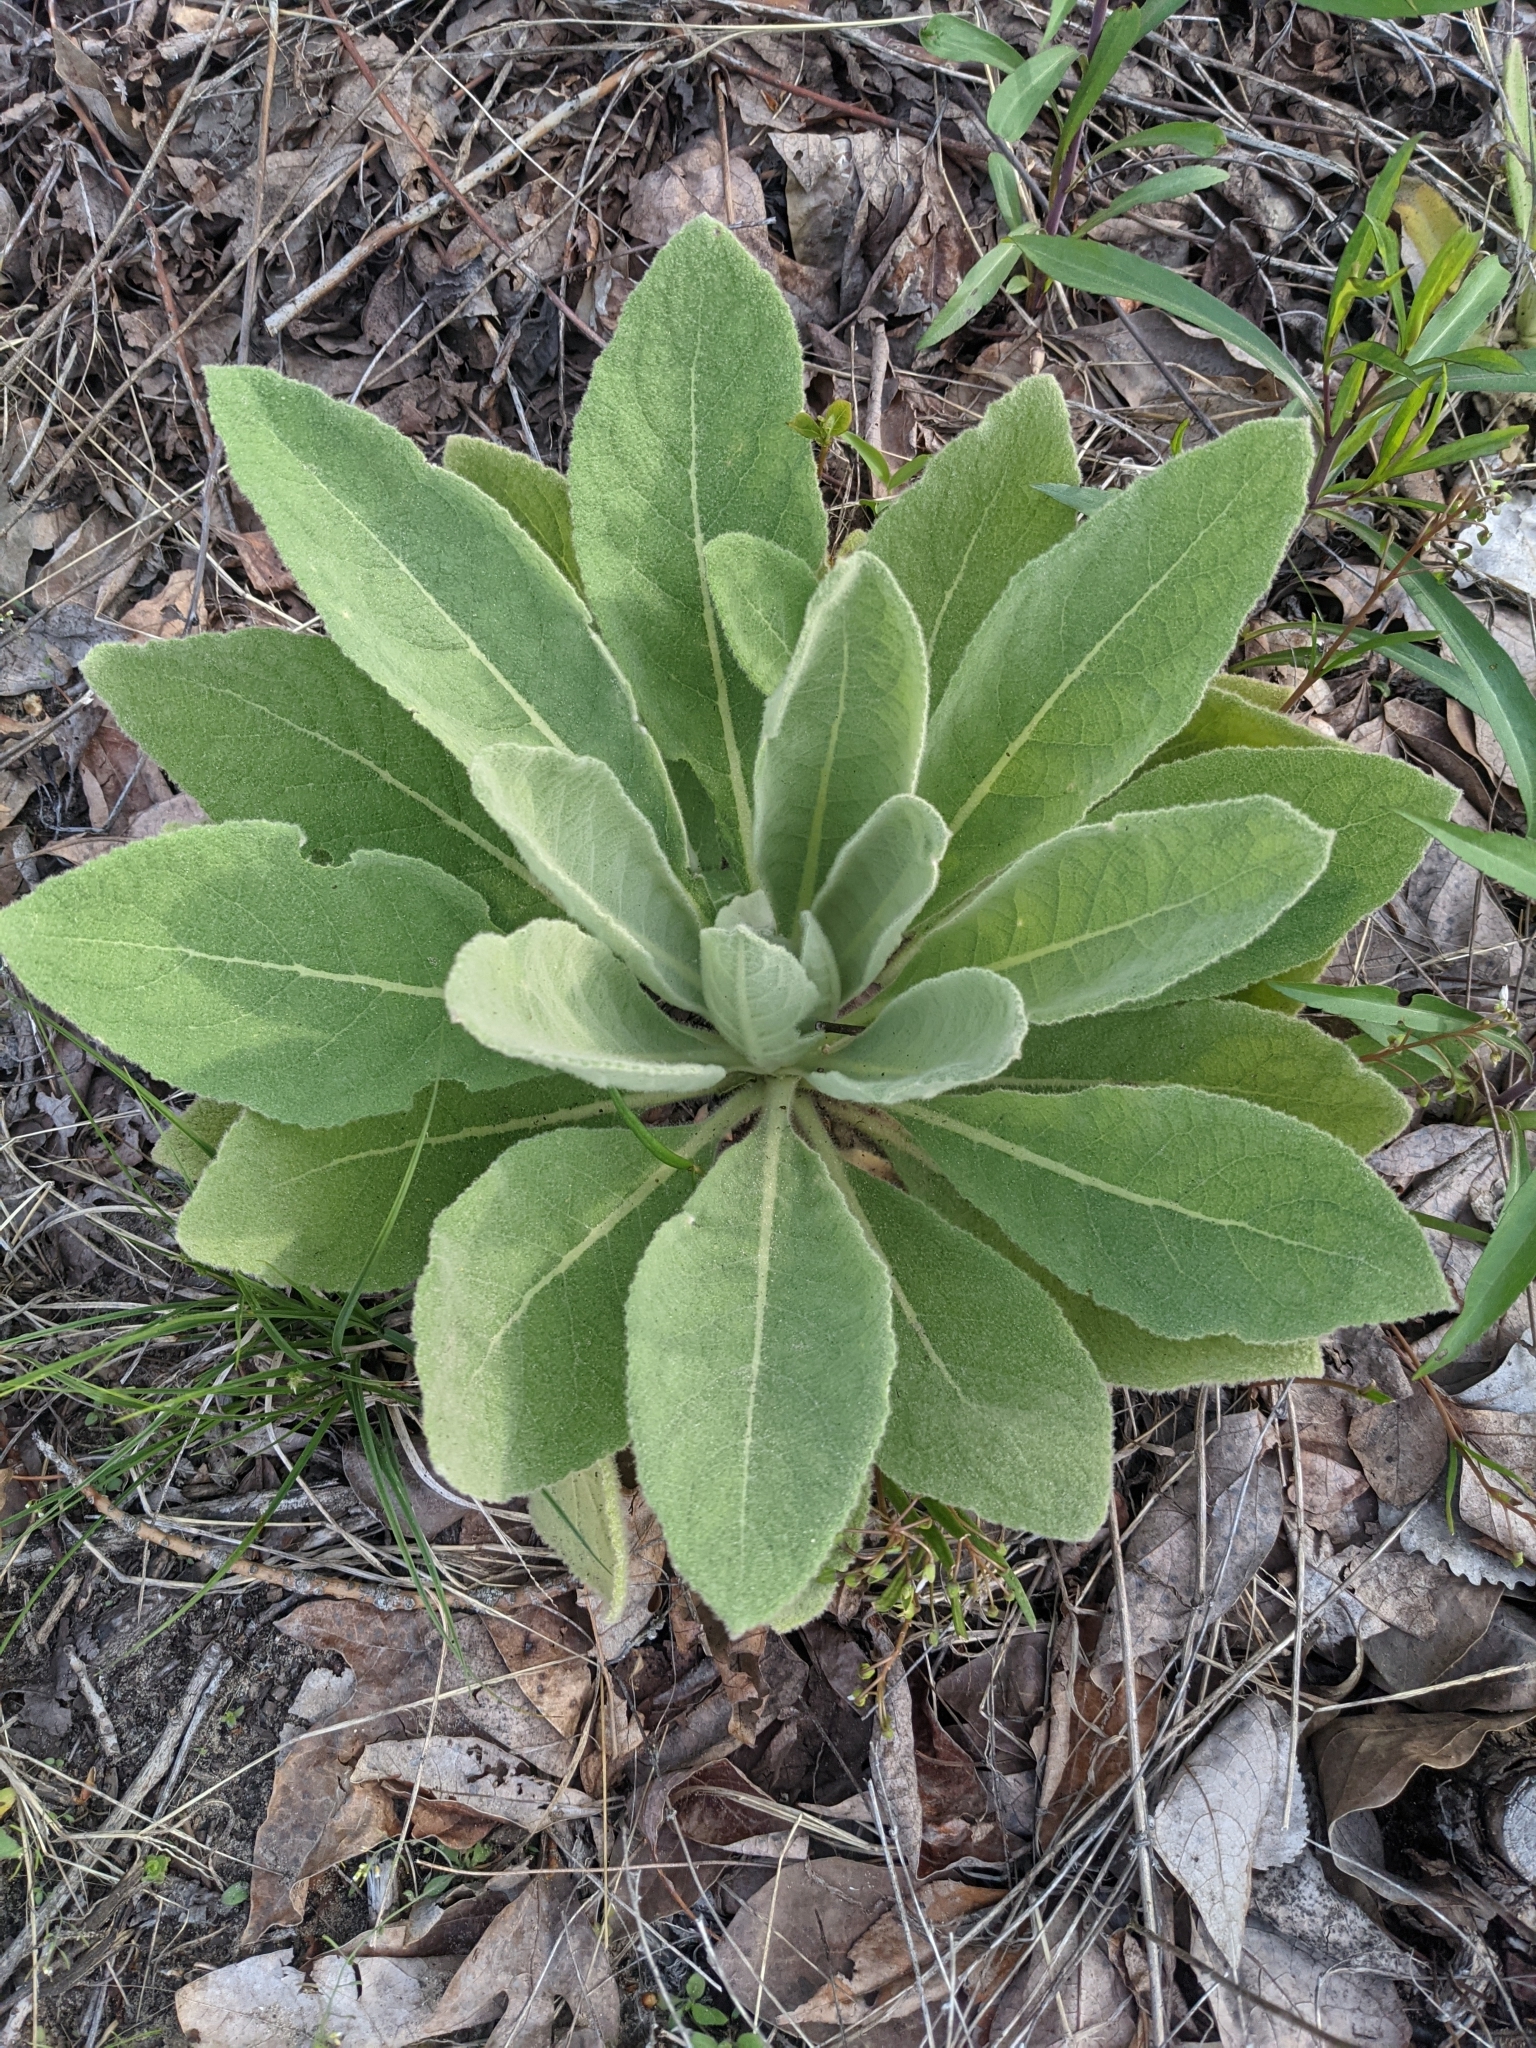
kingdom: Plantae
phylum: Tracheophyta
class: Magnoliopsida
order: Lamiales
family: Scrophulariaceae
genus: Verbascum
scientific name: Verbascum thapsus
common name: Common mullein
